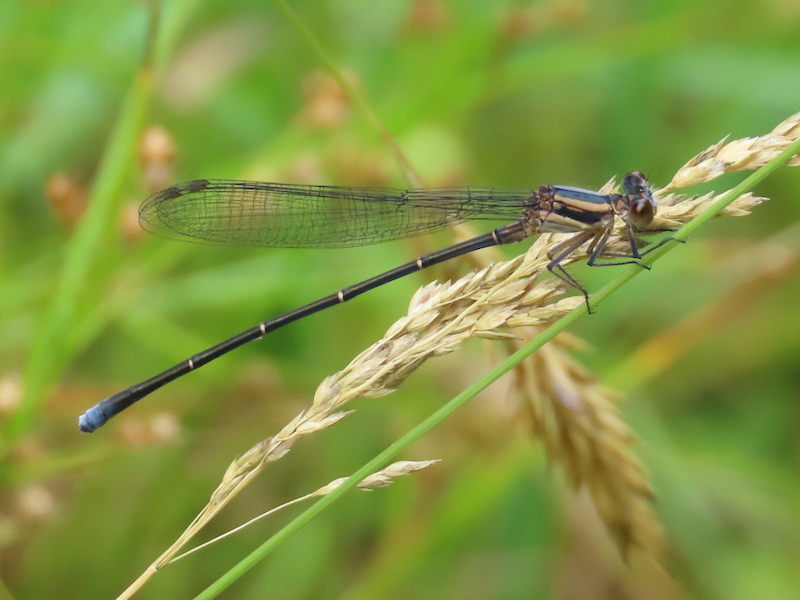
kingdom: Animalia
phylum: Arthropoda
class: Insecta
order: Odonata
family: Coenagrionidae
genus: Argia
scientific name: Argia moesta
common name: Powdered dancer
